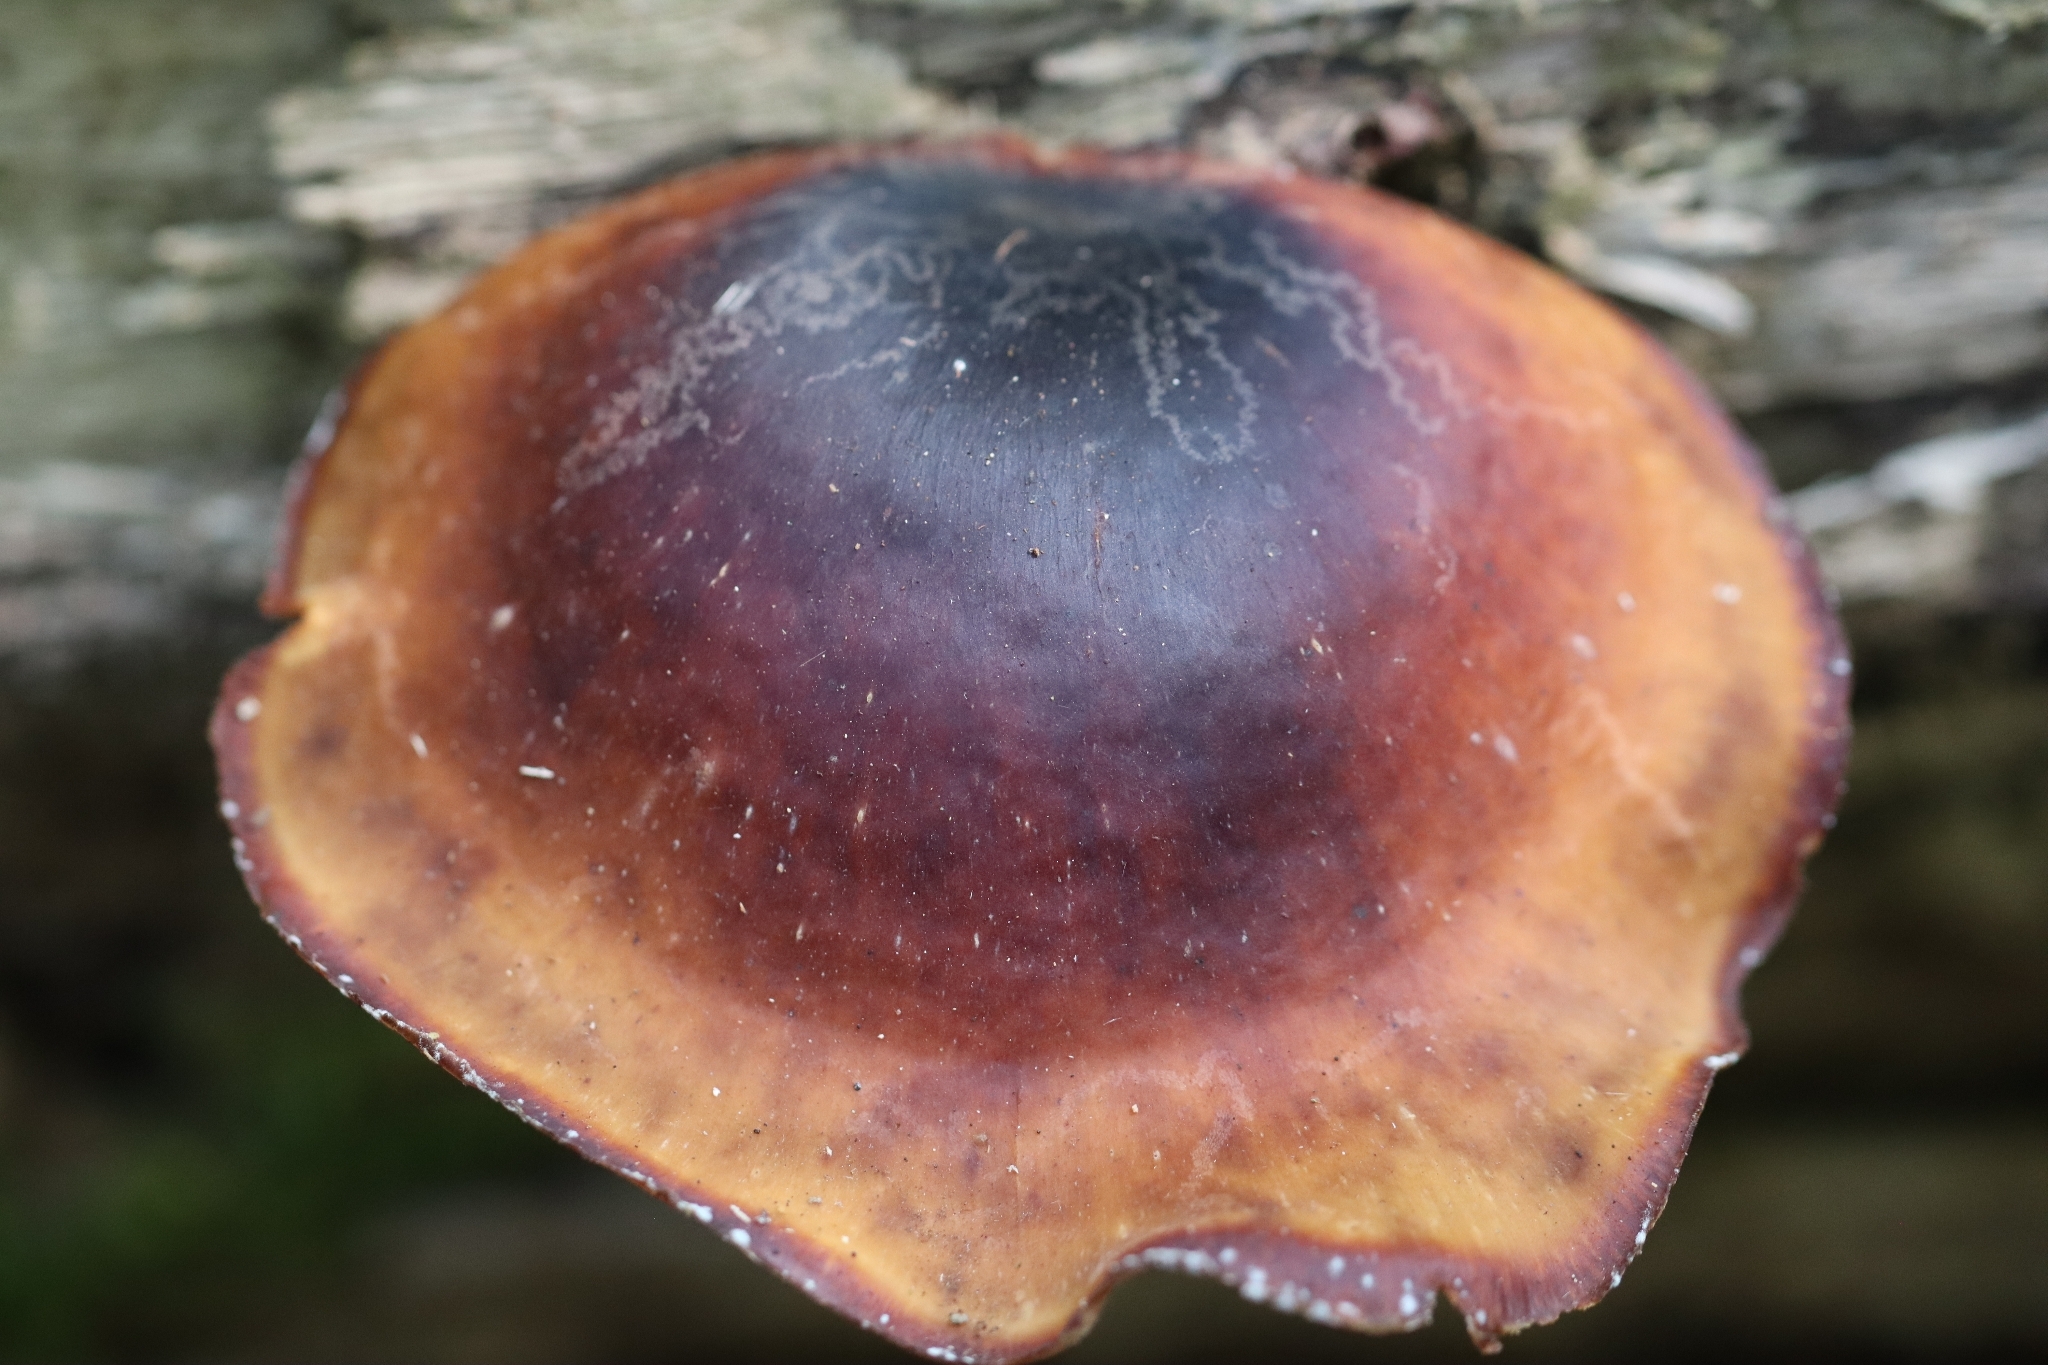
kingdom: Fungi
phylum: Basidiomycota
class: Agaricomycetes
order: Polyporales
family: Polyporaceae
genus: Picipes
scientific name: Picipes badius
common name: Bay polypore
